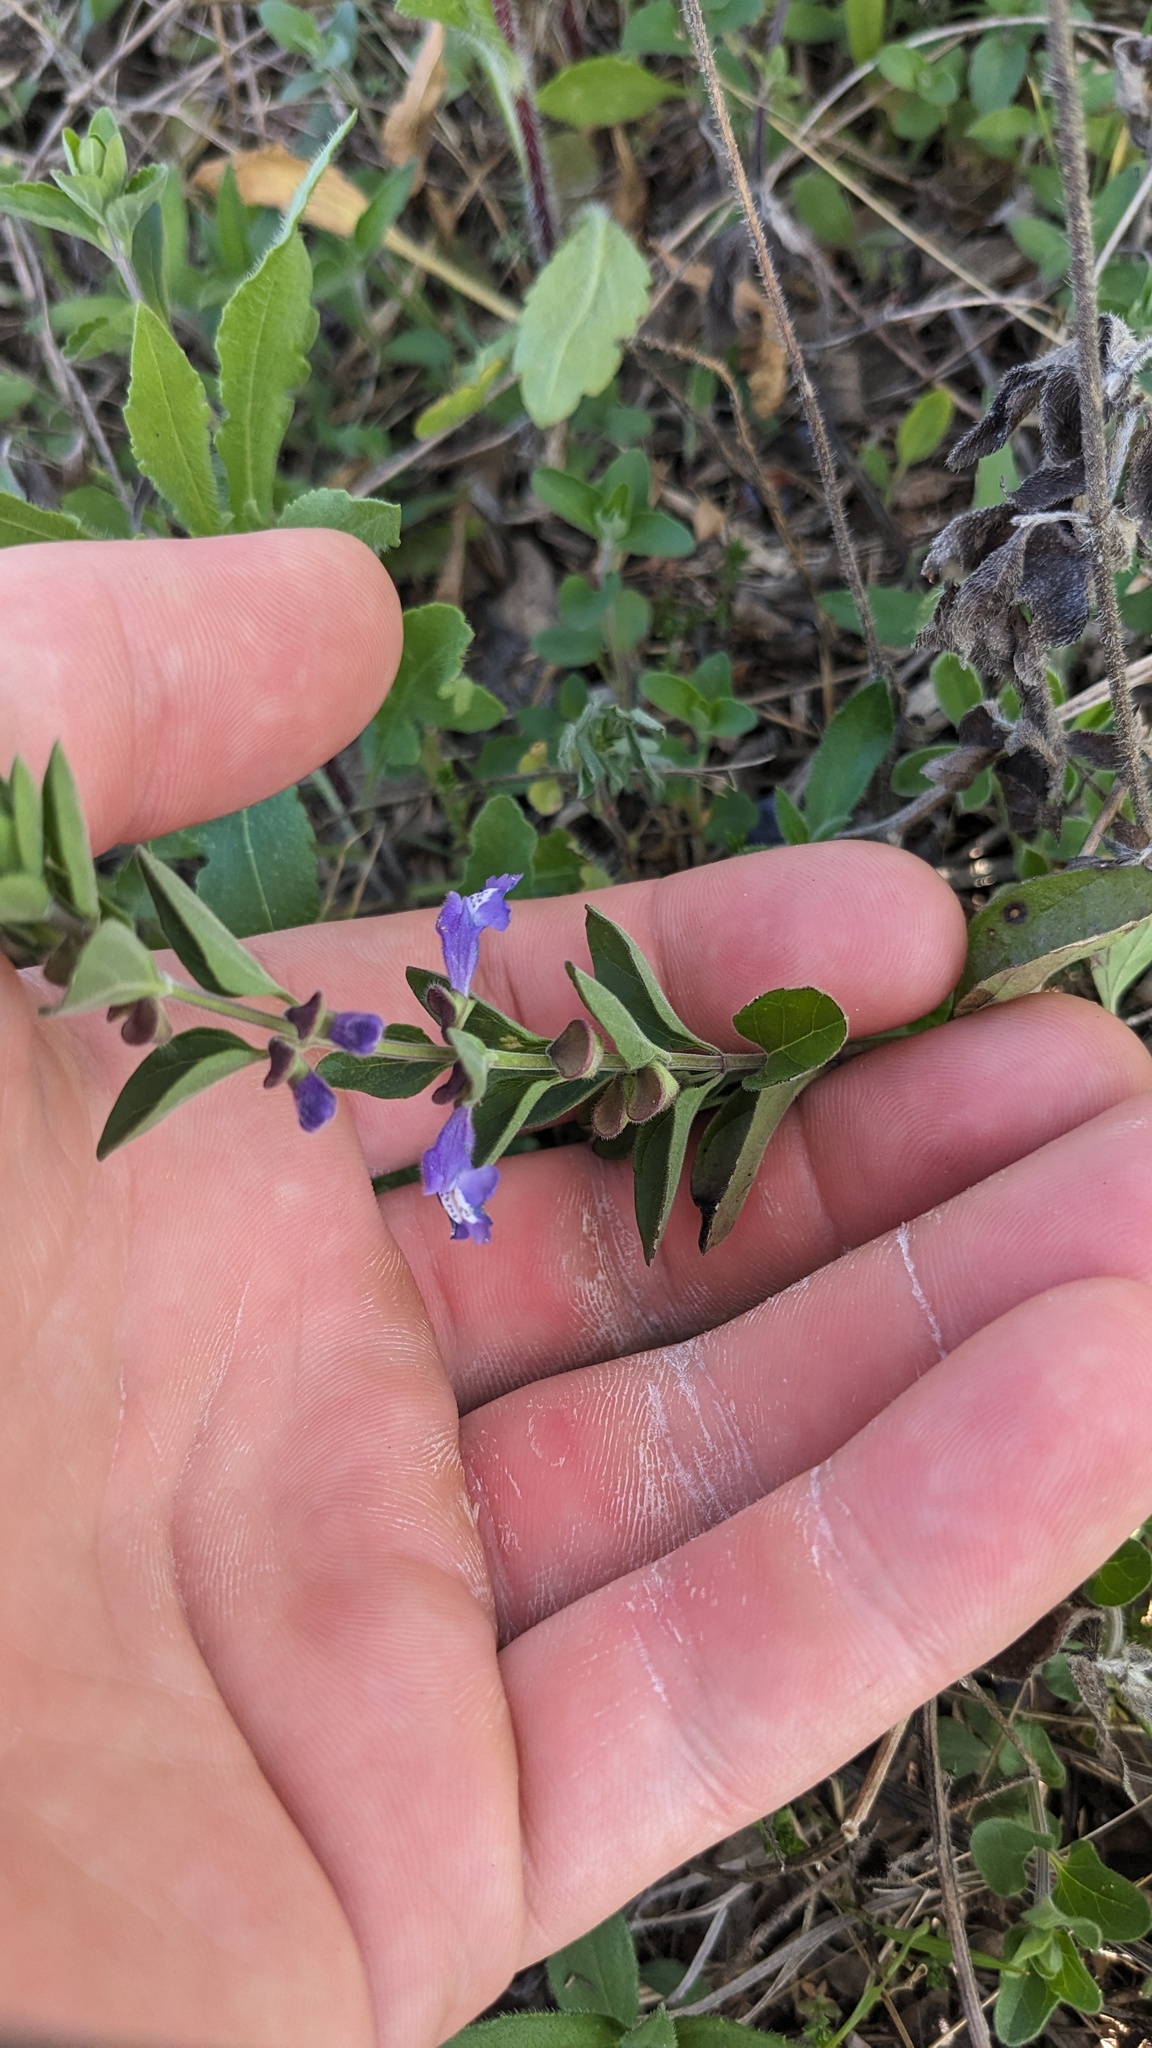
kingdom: Plantae
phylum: Tracheophyta
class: Magnoliopsida
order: Lamiales
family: Lamiaceae
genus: Scutellaria
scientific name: Scutellaria drummondii
